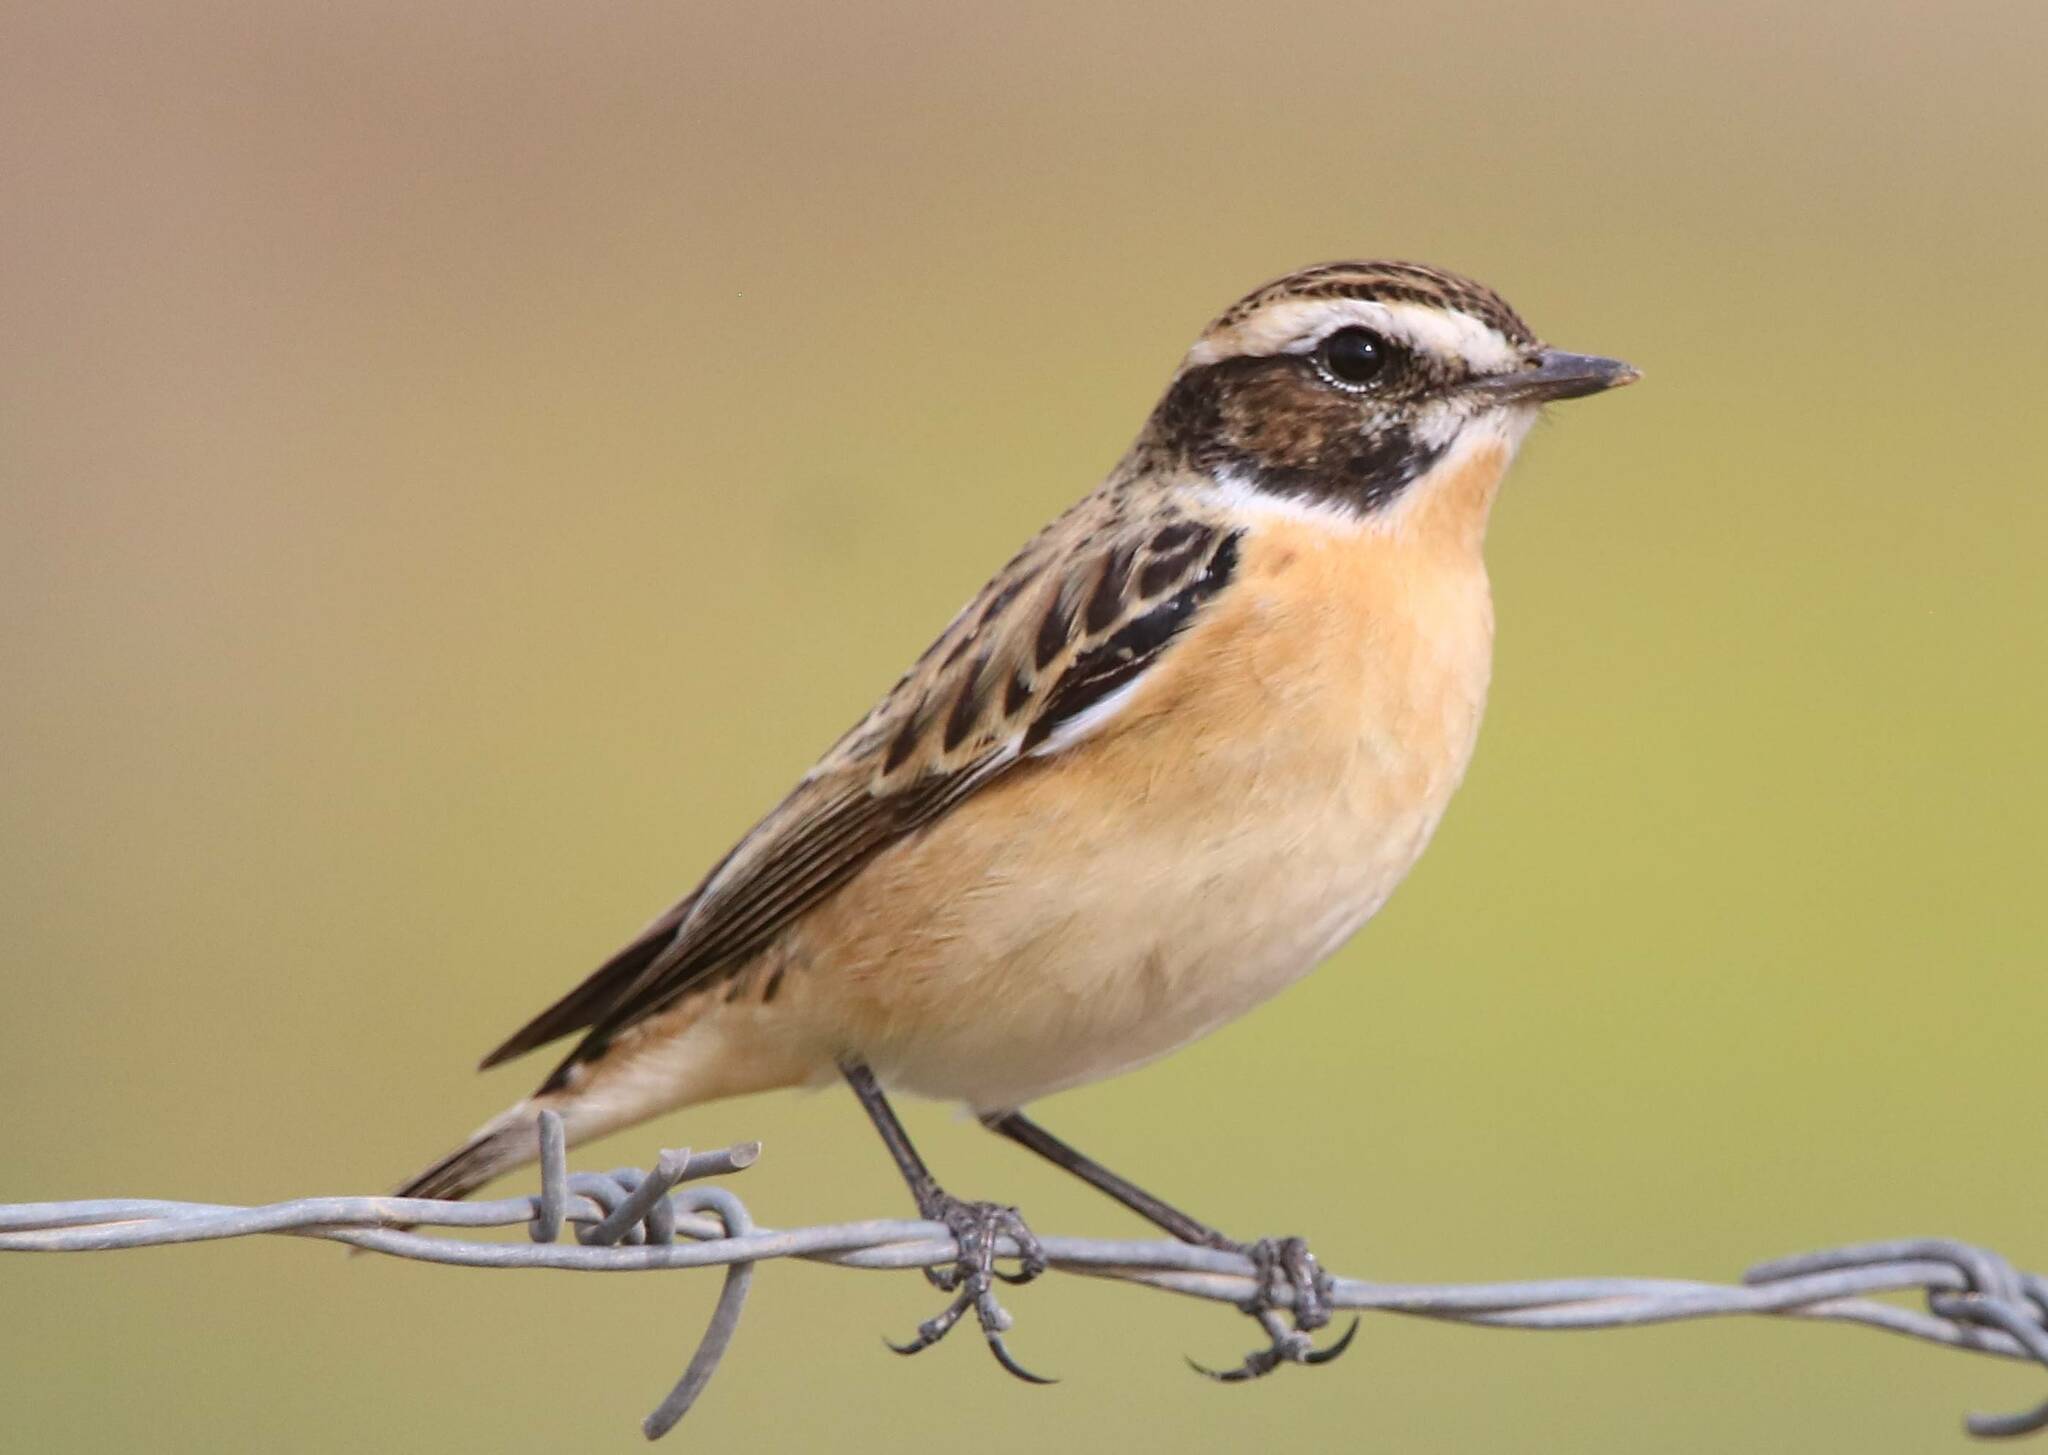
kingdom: Animalia
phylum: Chordata
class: Aves
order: Passeriformes
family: Muscicapidae
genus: Saxicola
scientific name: Saxicola rubetra
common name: Whinchat
